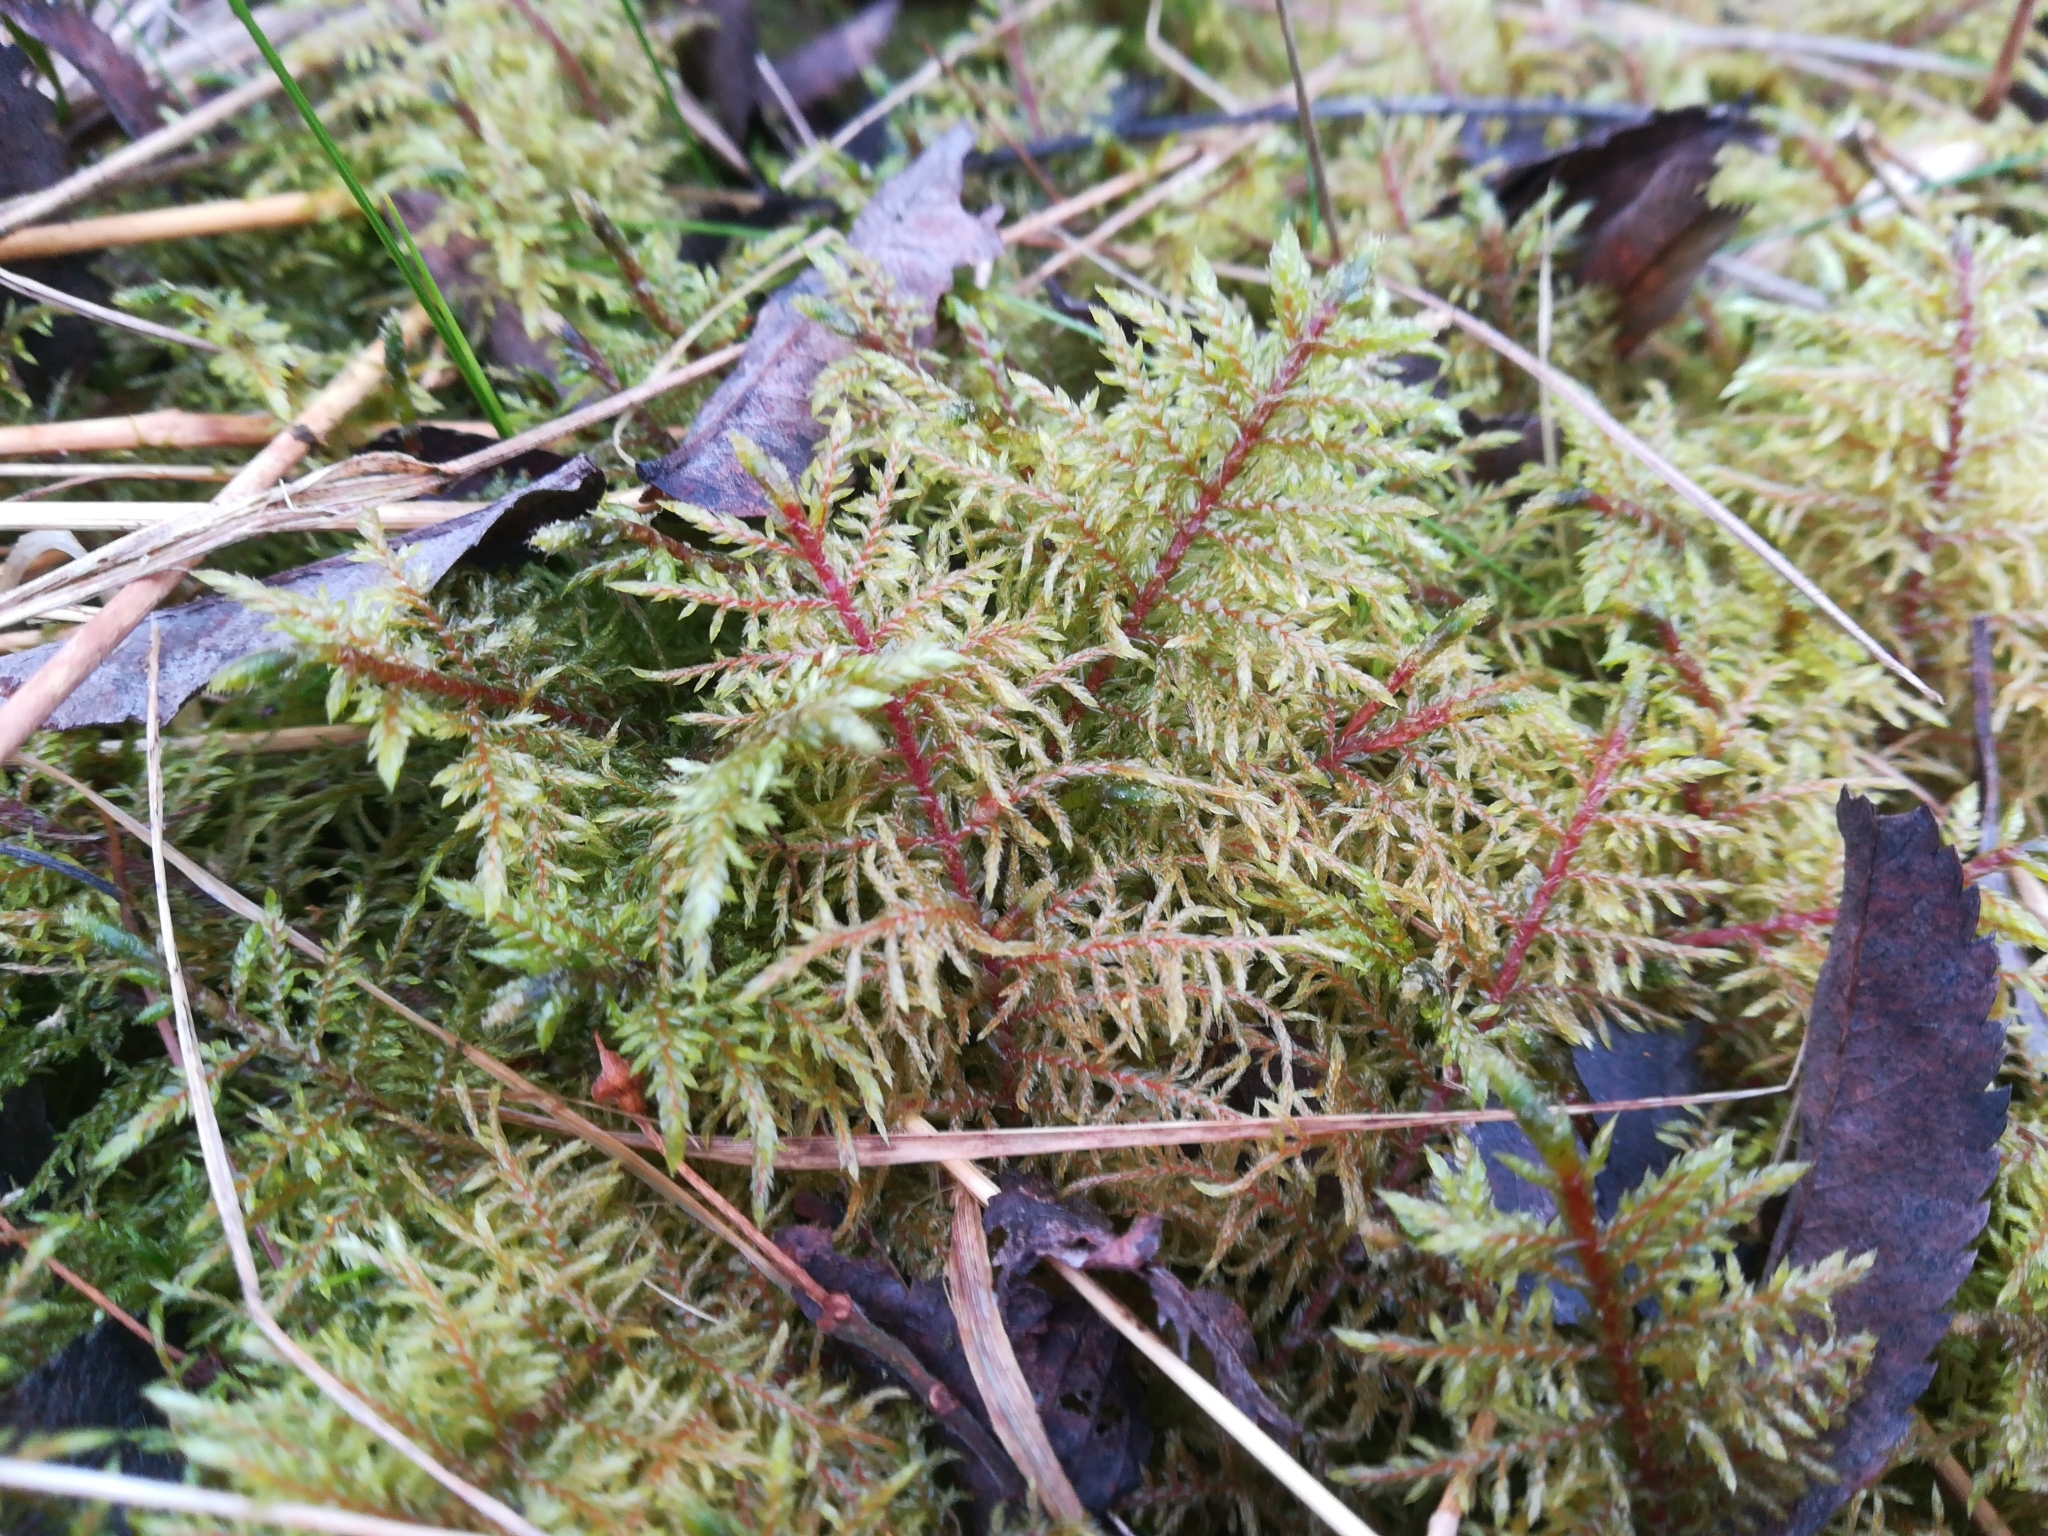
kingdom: Plantae
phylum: Bryophyta
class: Bryopsida
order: Hypnales
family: Hylocomiaceae
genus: Hylocomium
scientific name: Hylocomium splendens
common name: Stairstep moss
